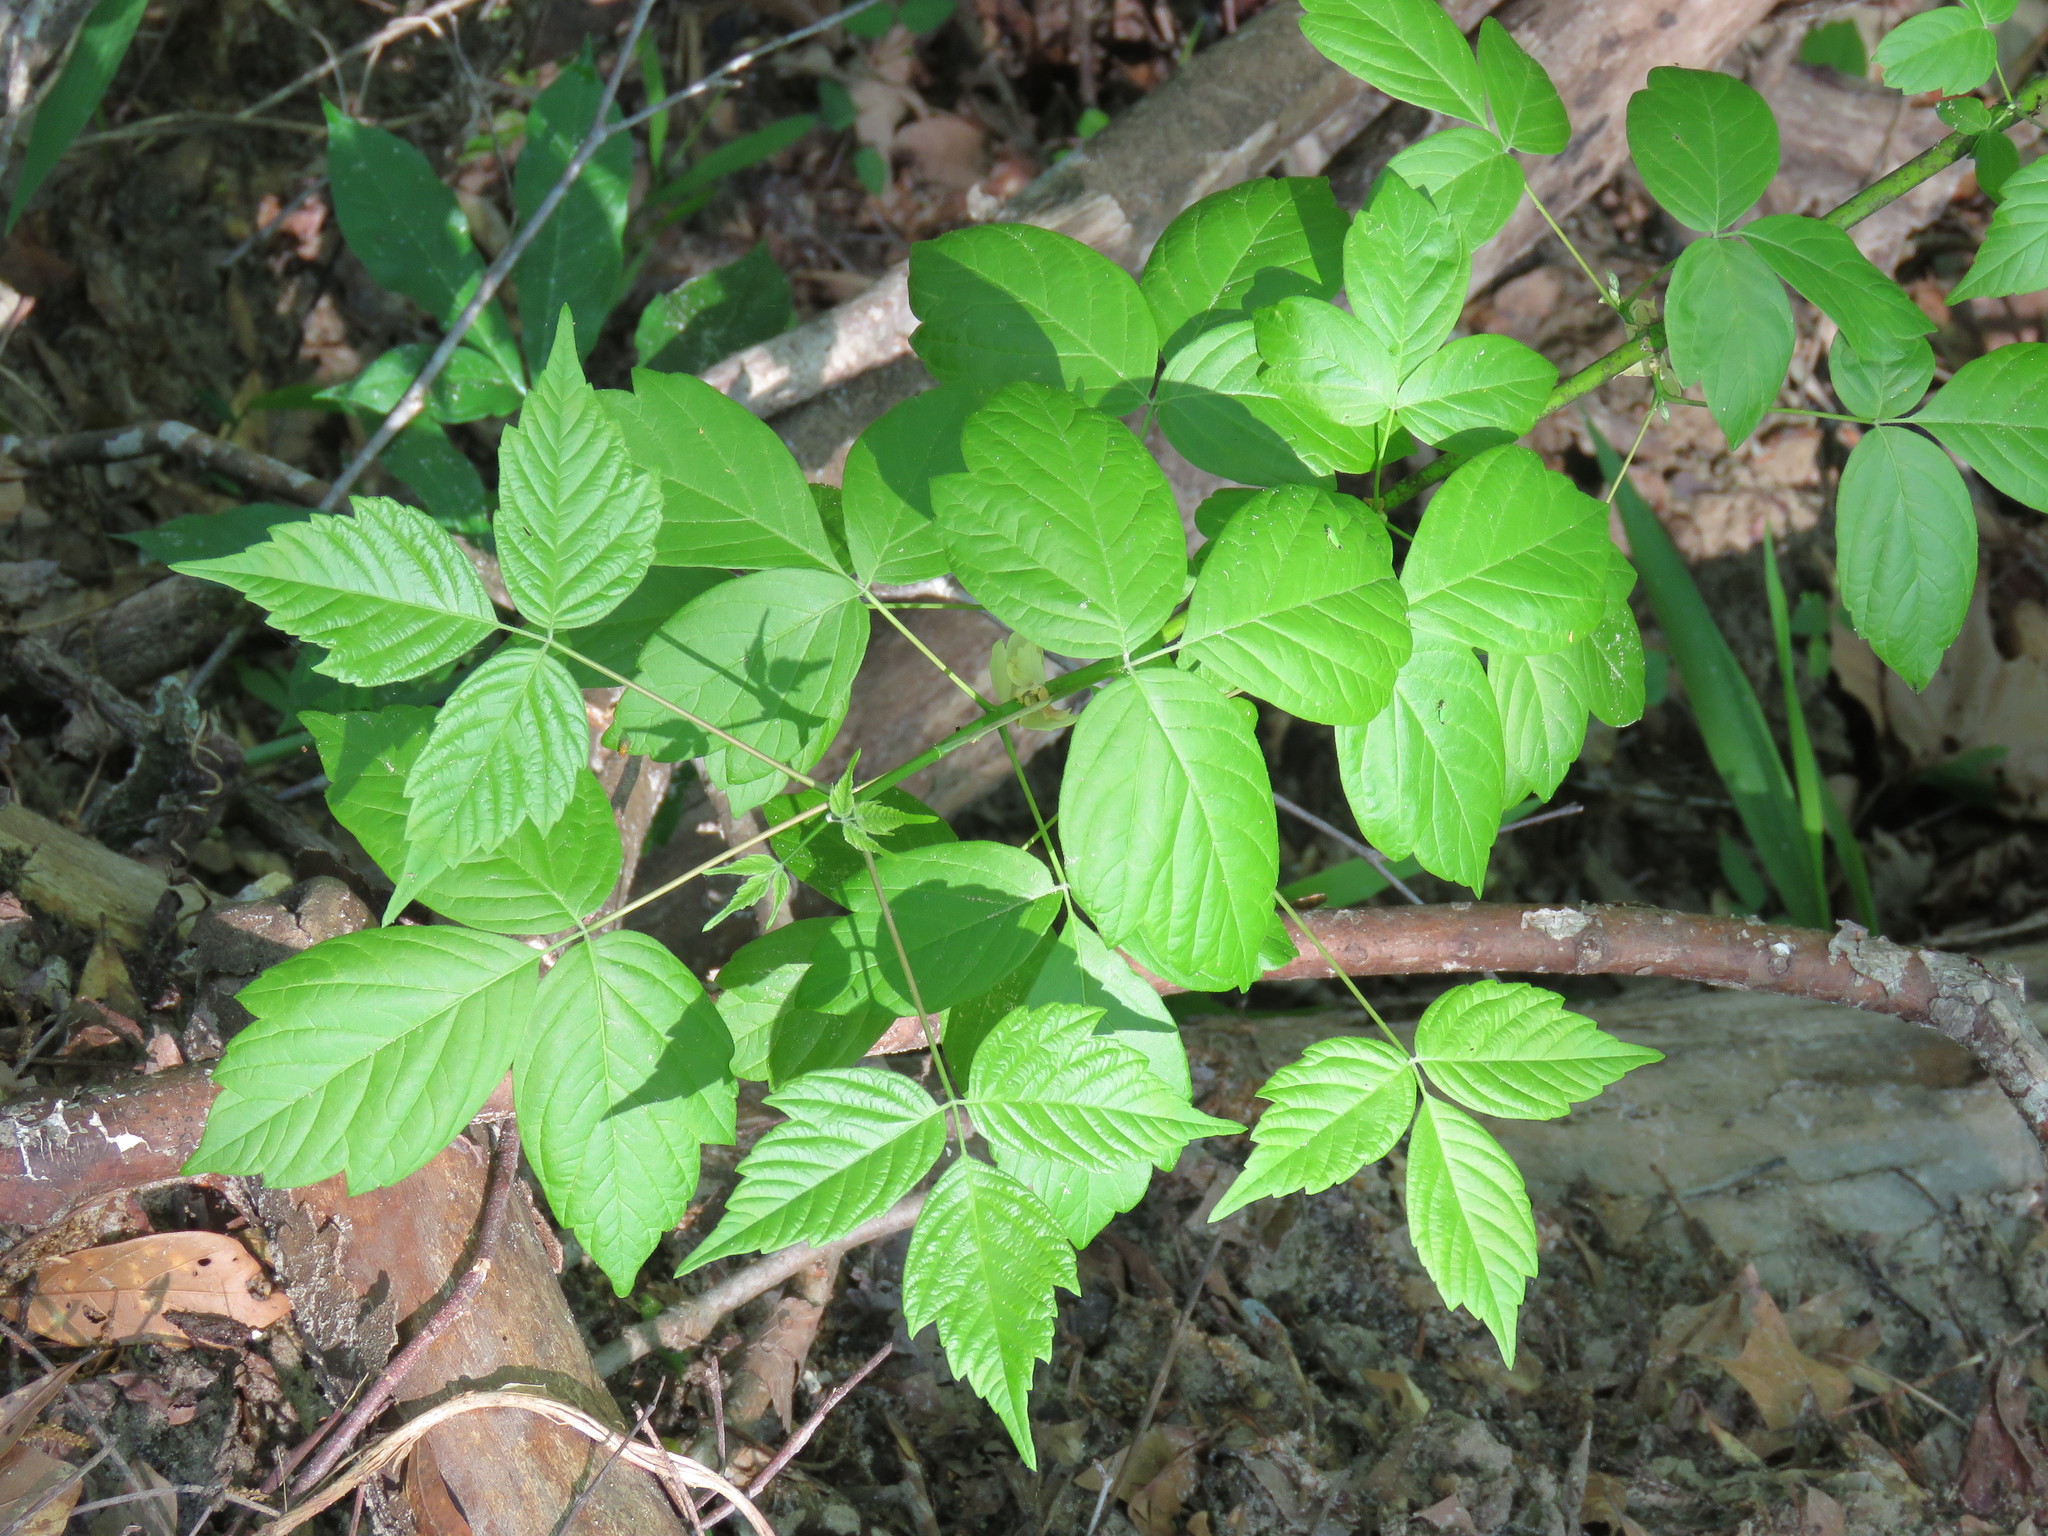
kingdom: Plantae
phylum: Tracheophyta
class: Magnoliopsida
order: Sapindales
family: Sapindaceae
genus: Acer
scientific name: Acer negundo
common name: Ashleaf maple
